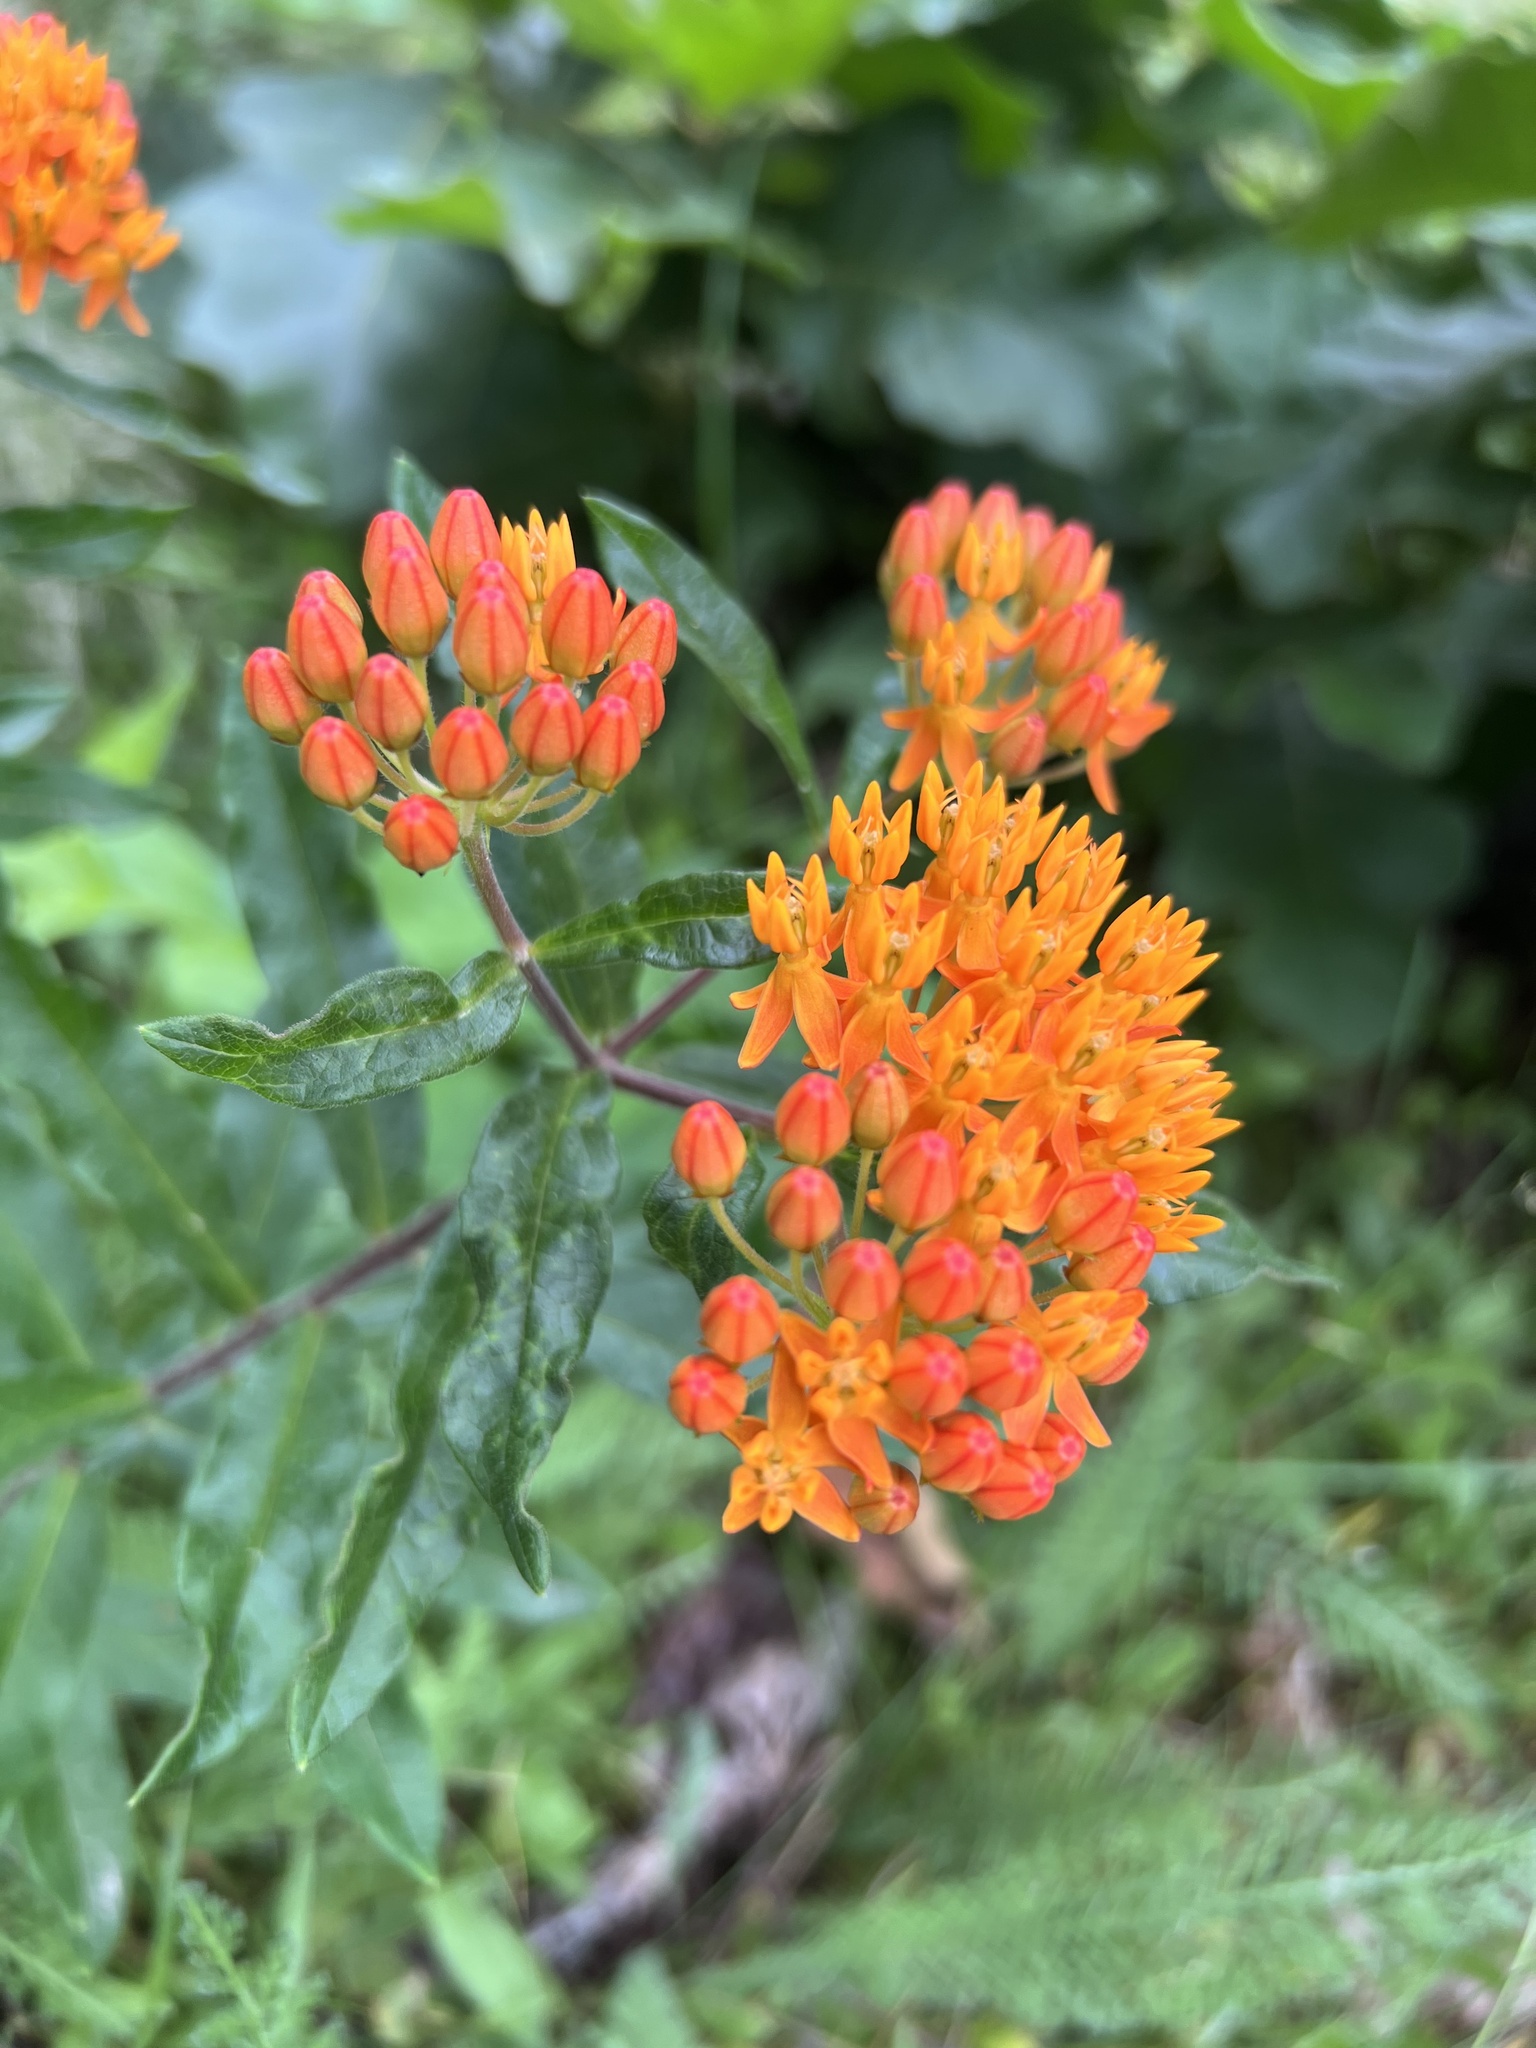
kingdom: Plantae
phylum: Tracheophyta
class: Magnoliopsida
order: Gentianales
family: Apocynaceae
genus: Asclepias
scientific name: Asclepias tuberosa
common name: Butterfly milkweed
